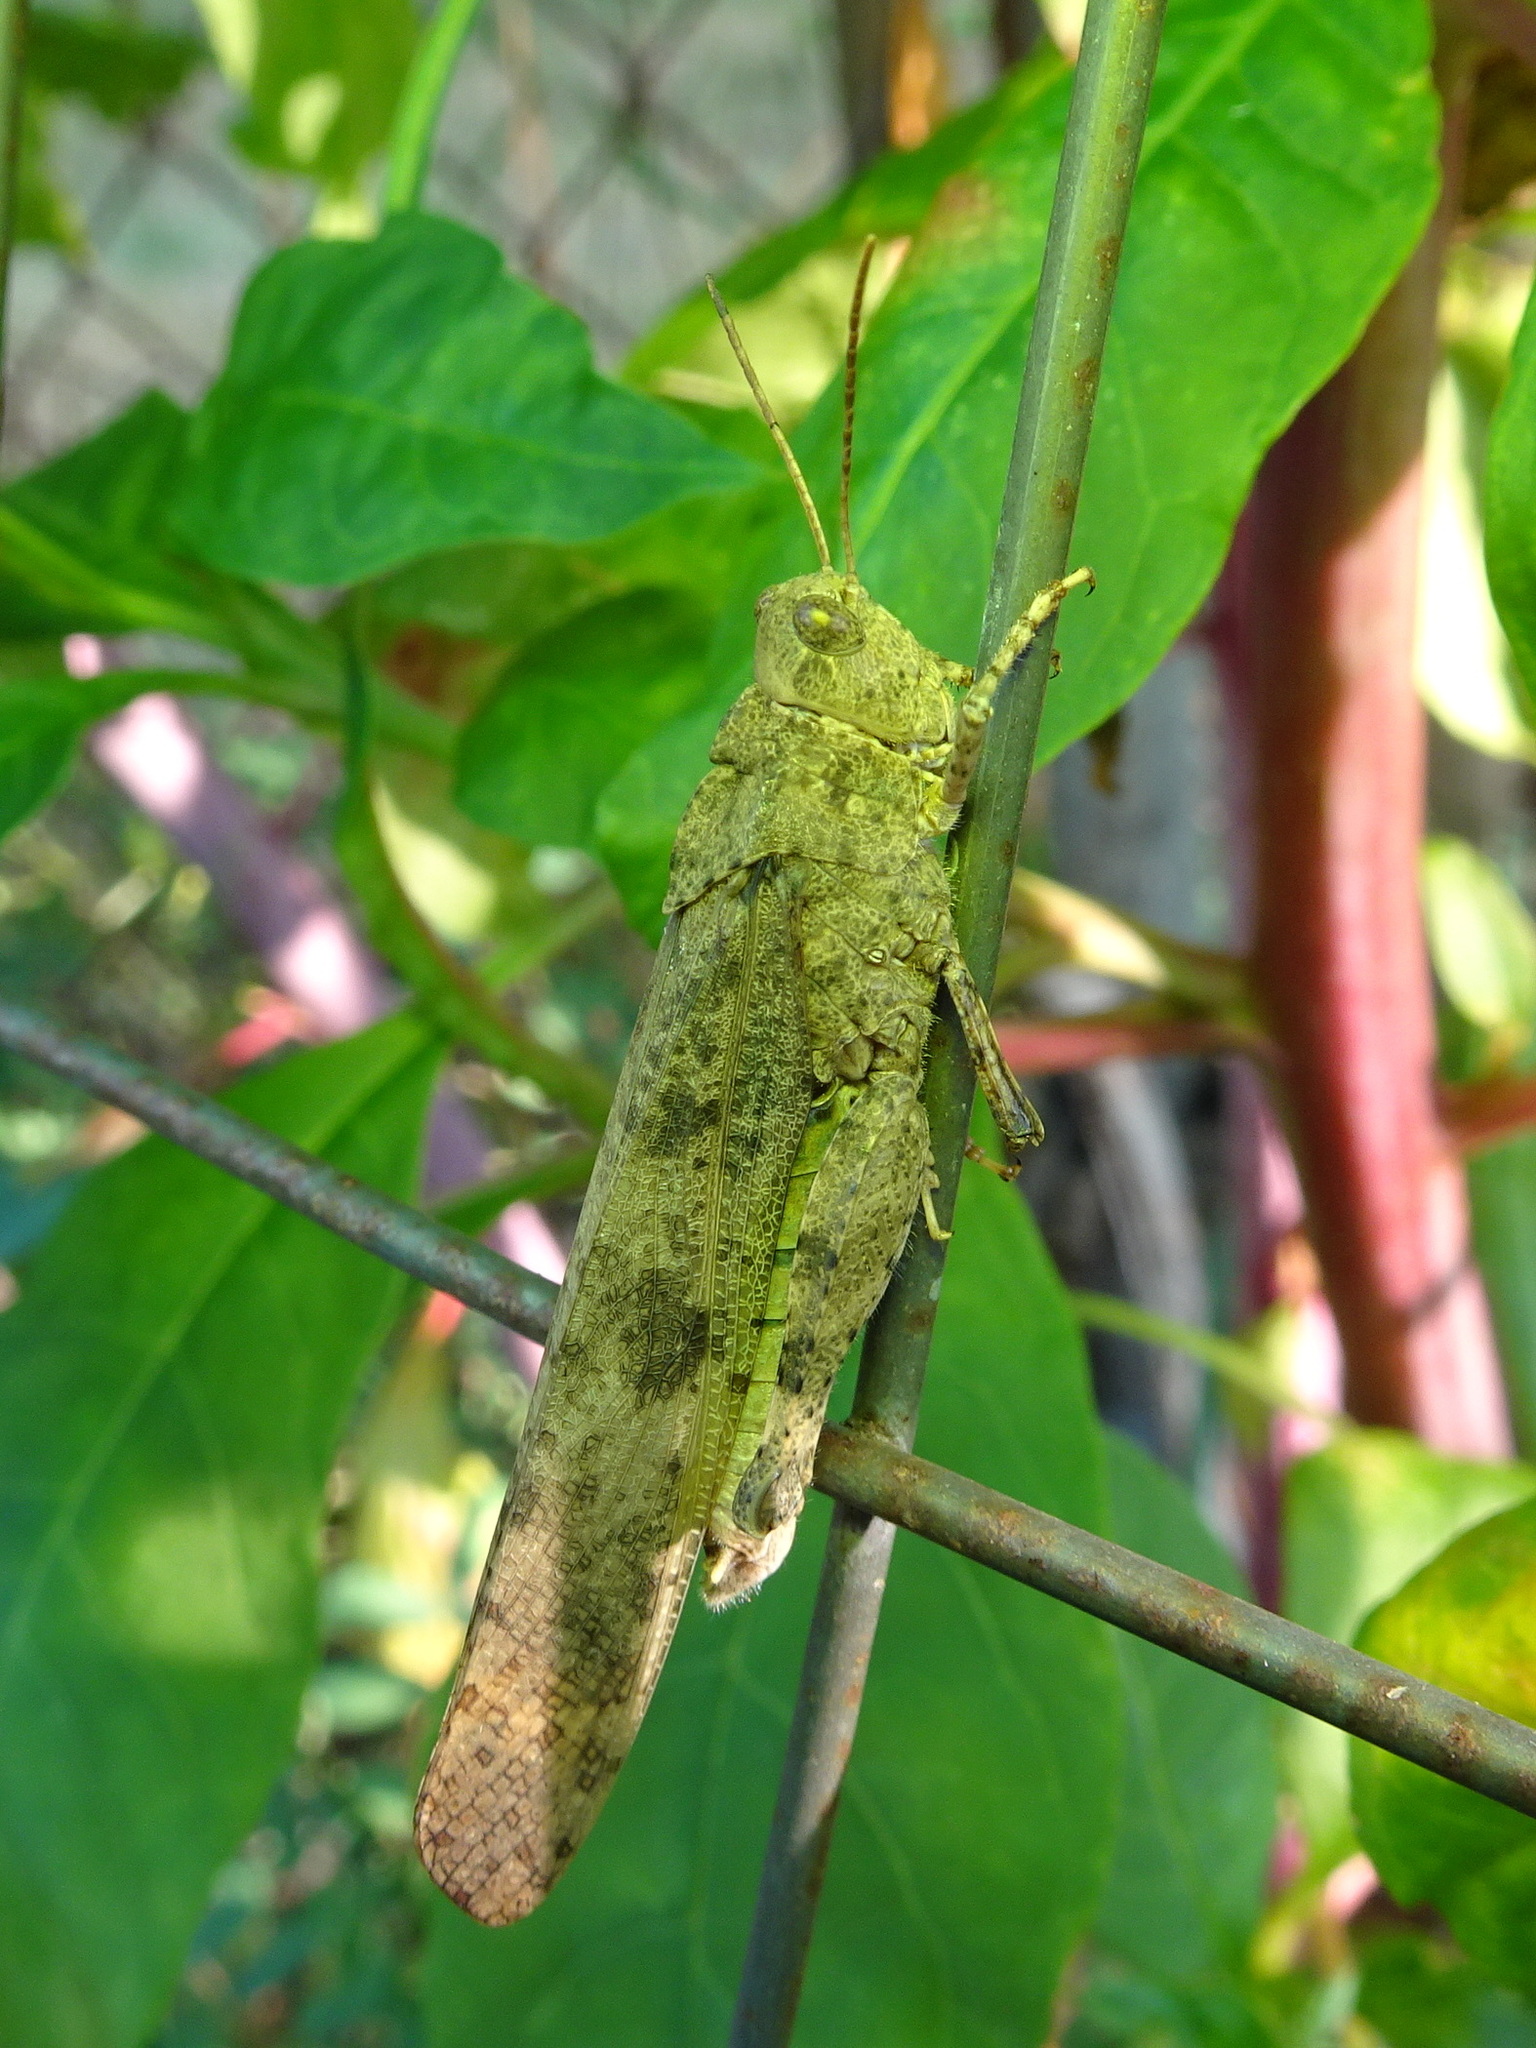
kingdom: Animalia
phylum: Arthropoda
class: Insecta
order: Orthoptera
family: Acrididae
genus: Dissosteira
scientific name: Dissosteira carolina
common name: Carolina grasshopper
